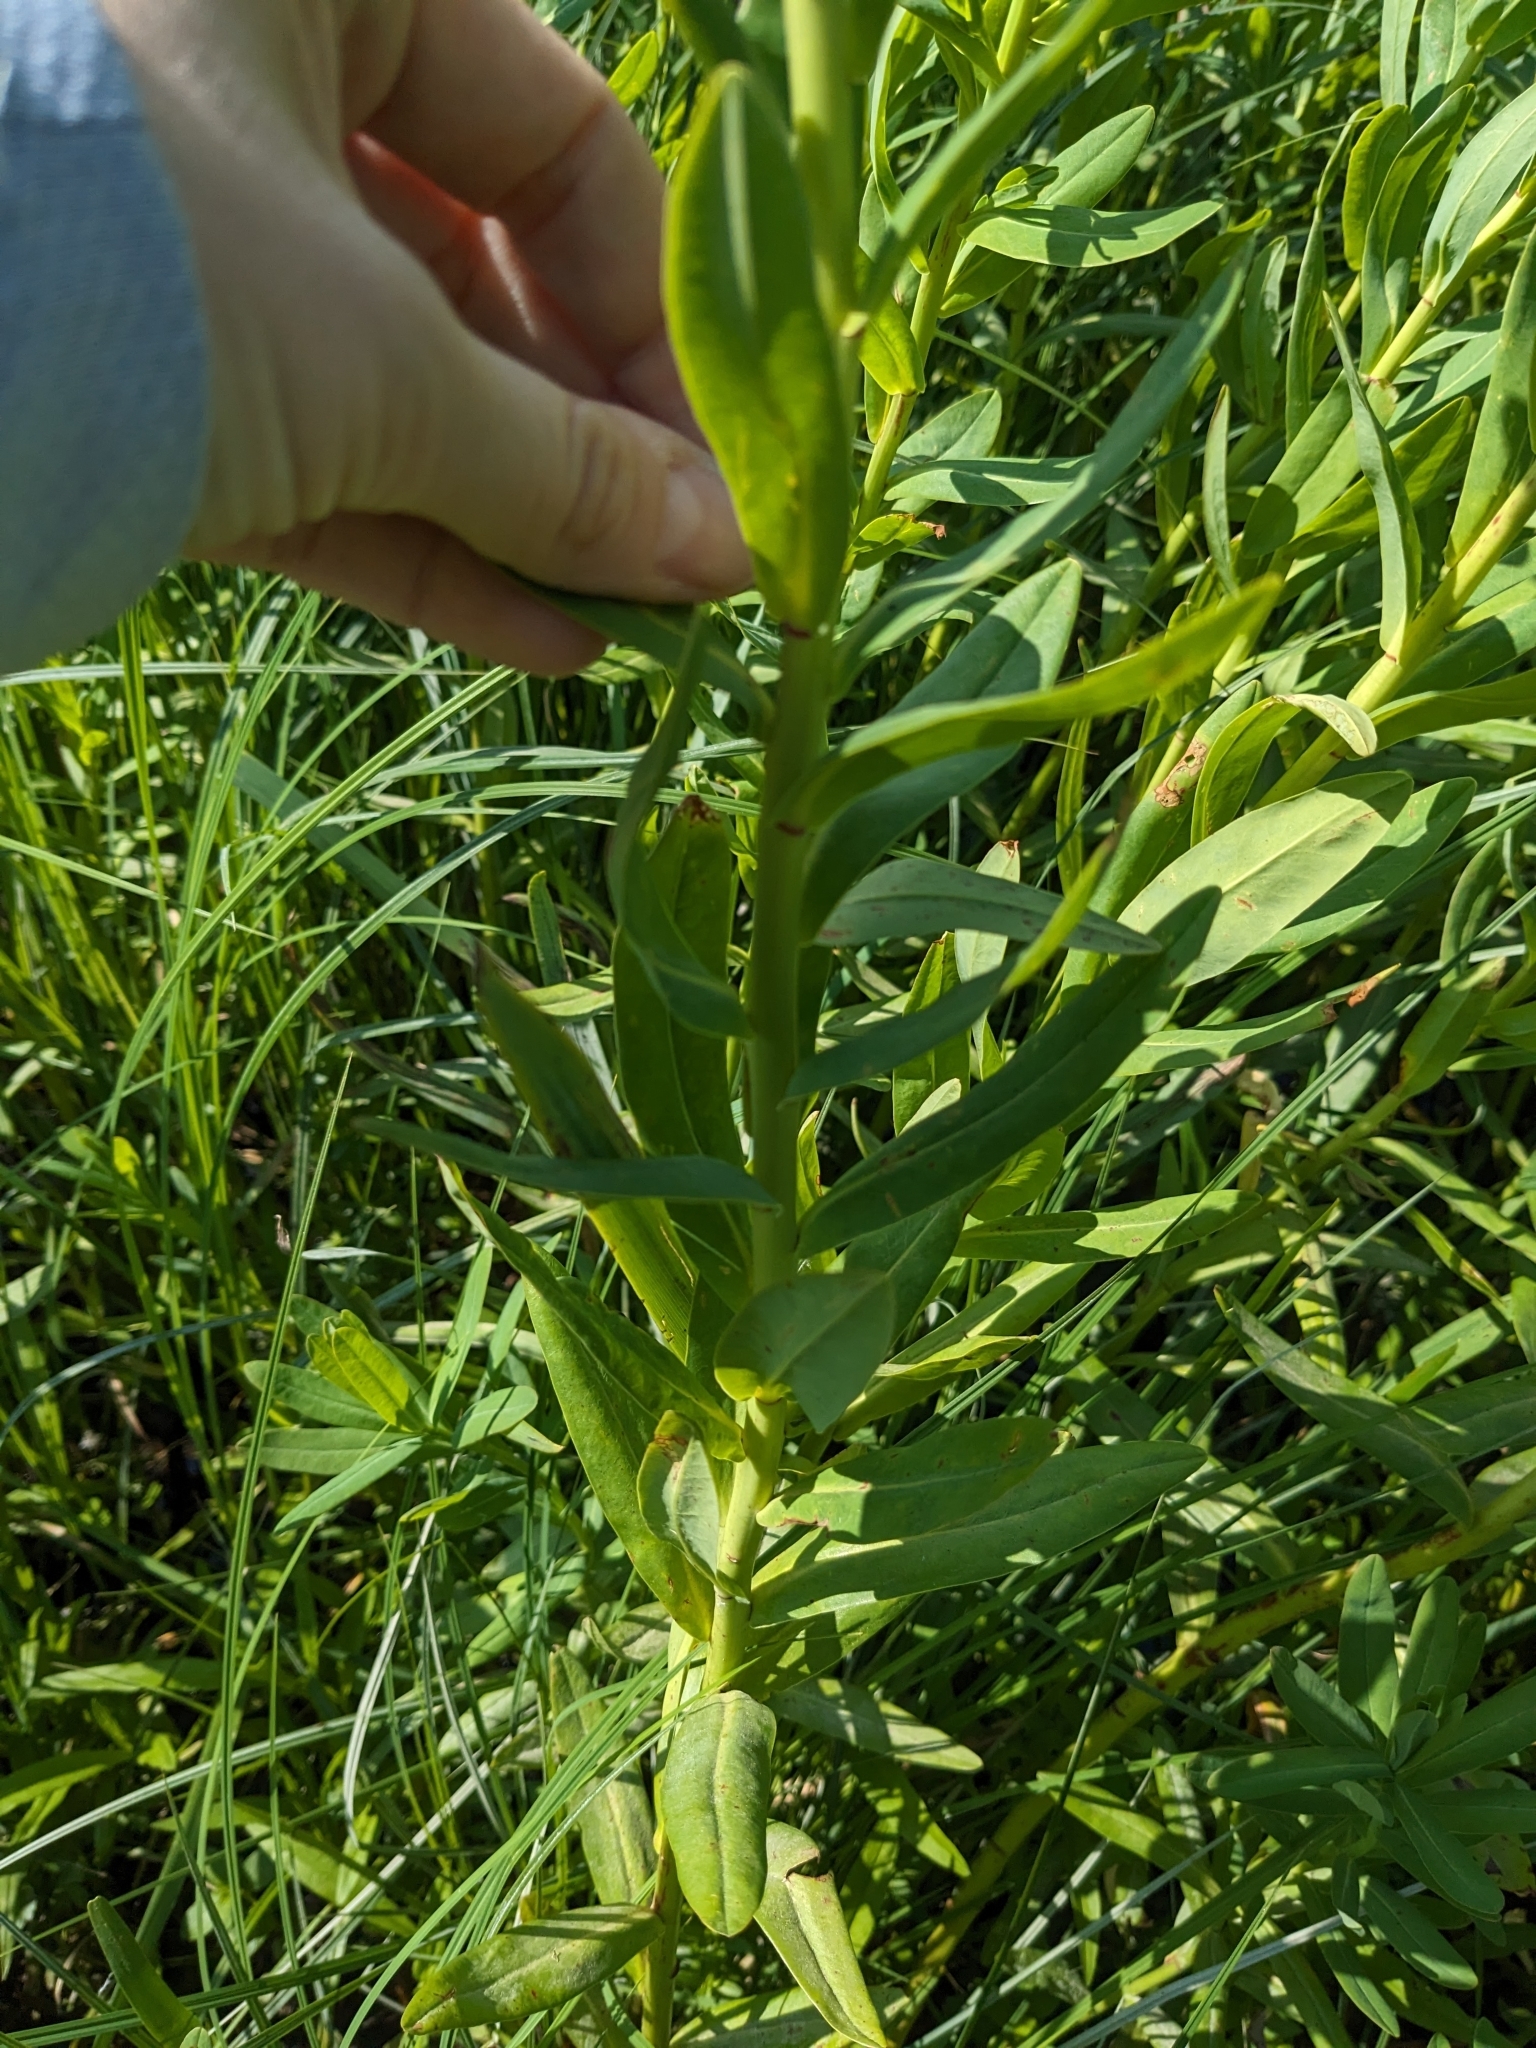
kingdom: Plantae
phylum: Tracheophyta
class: Magnoliopsida
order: Malpighiales
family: Euphorbiaceae
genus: Euphorbia
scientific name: Euphorbia lucida
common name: Shining spurge
